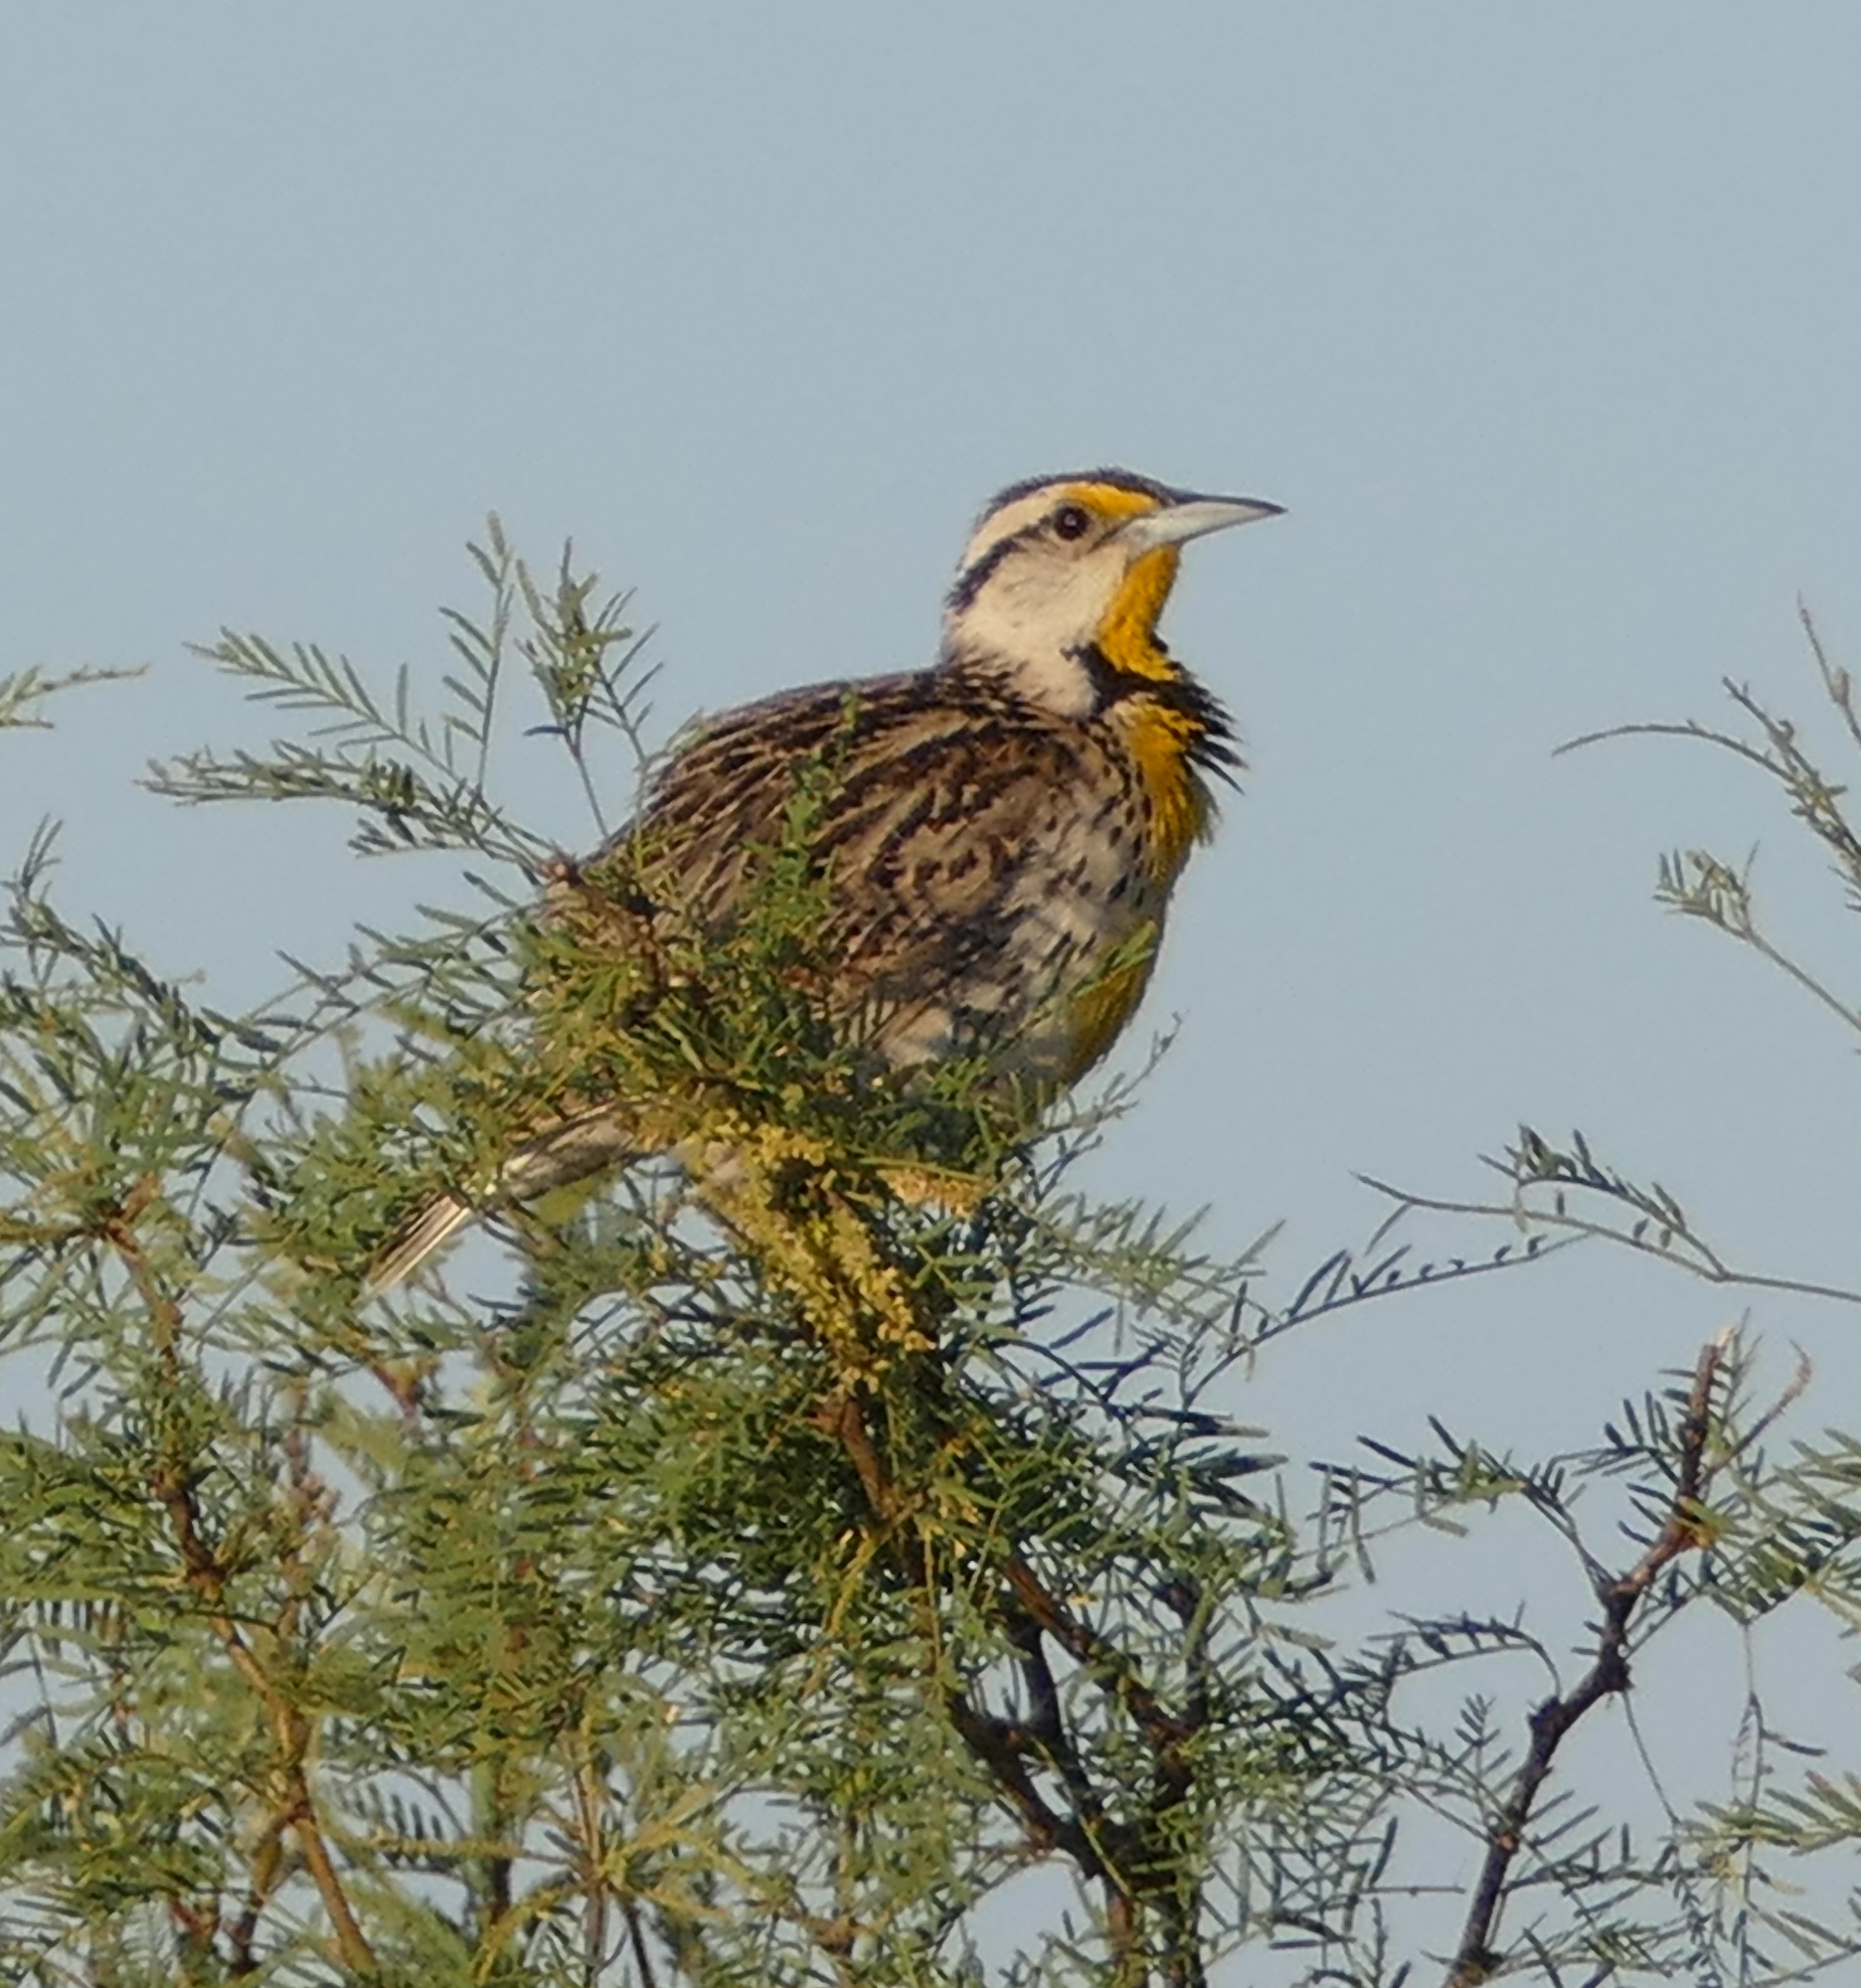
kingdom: Animalia
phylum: Chordata
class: Aves
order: Passeriformes
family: Icteridae
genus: Sturnella
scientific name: Sturnella lilianae
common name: Lilian's meadowlark
